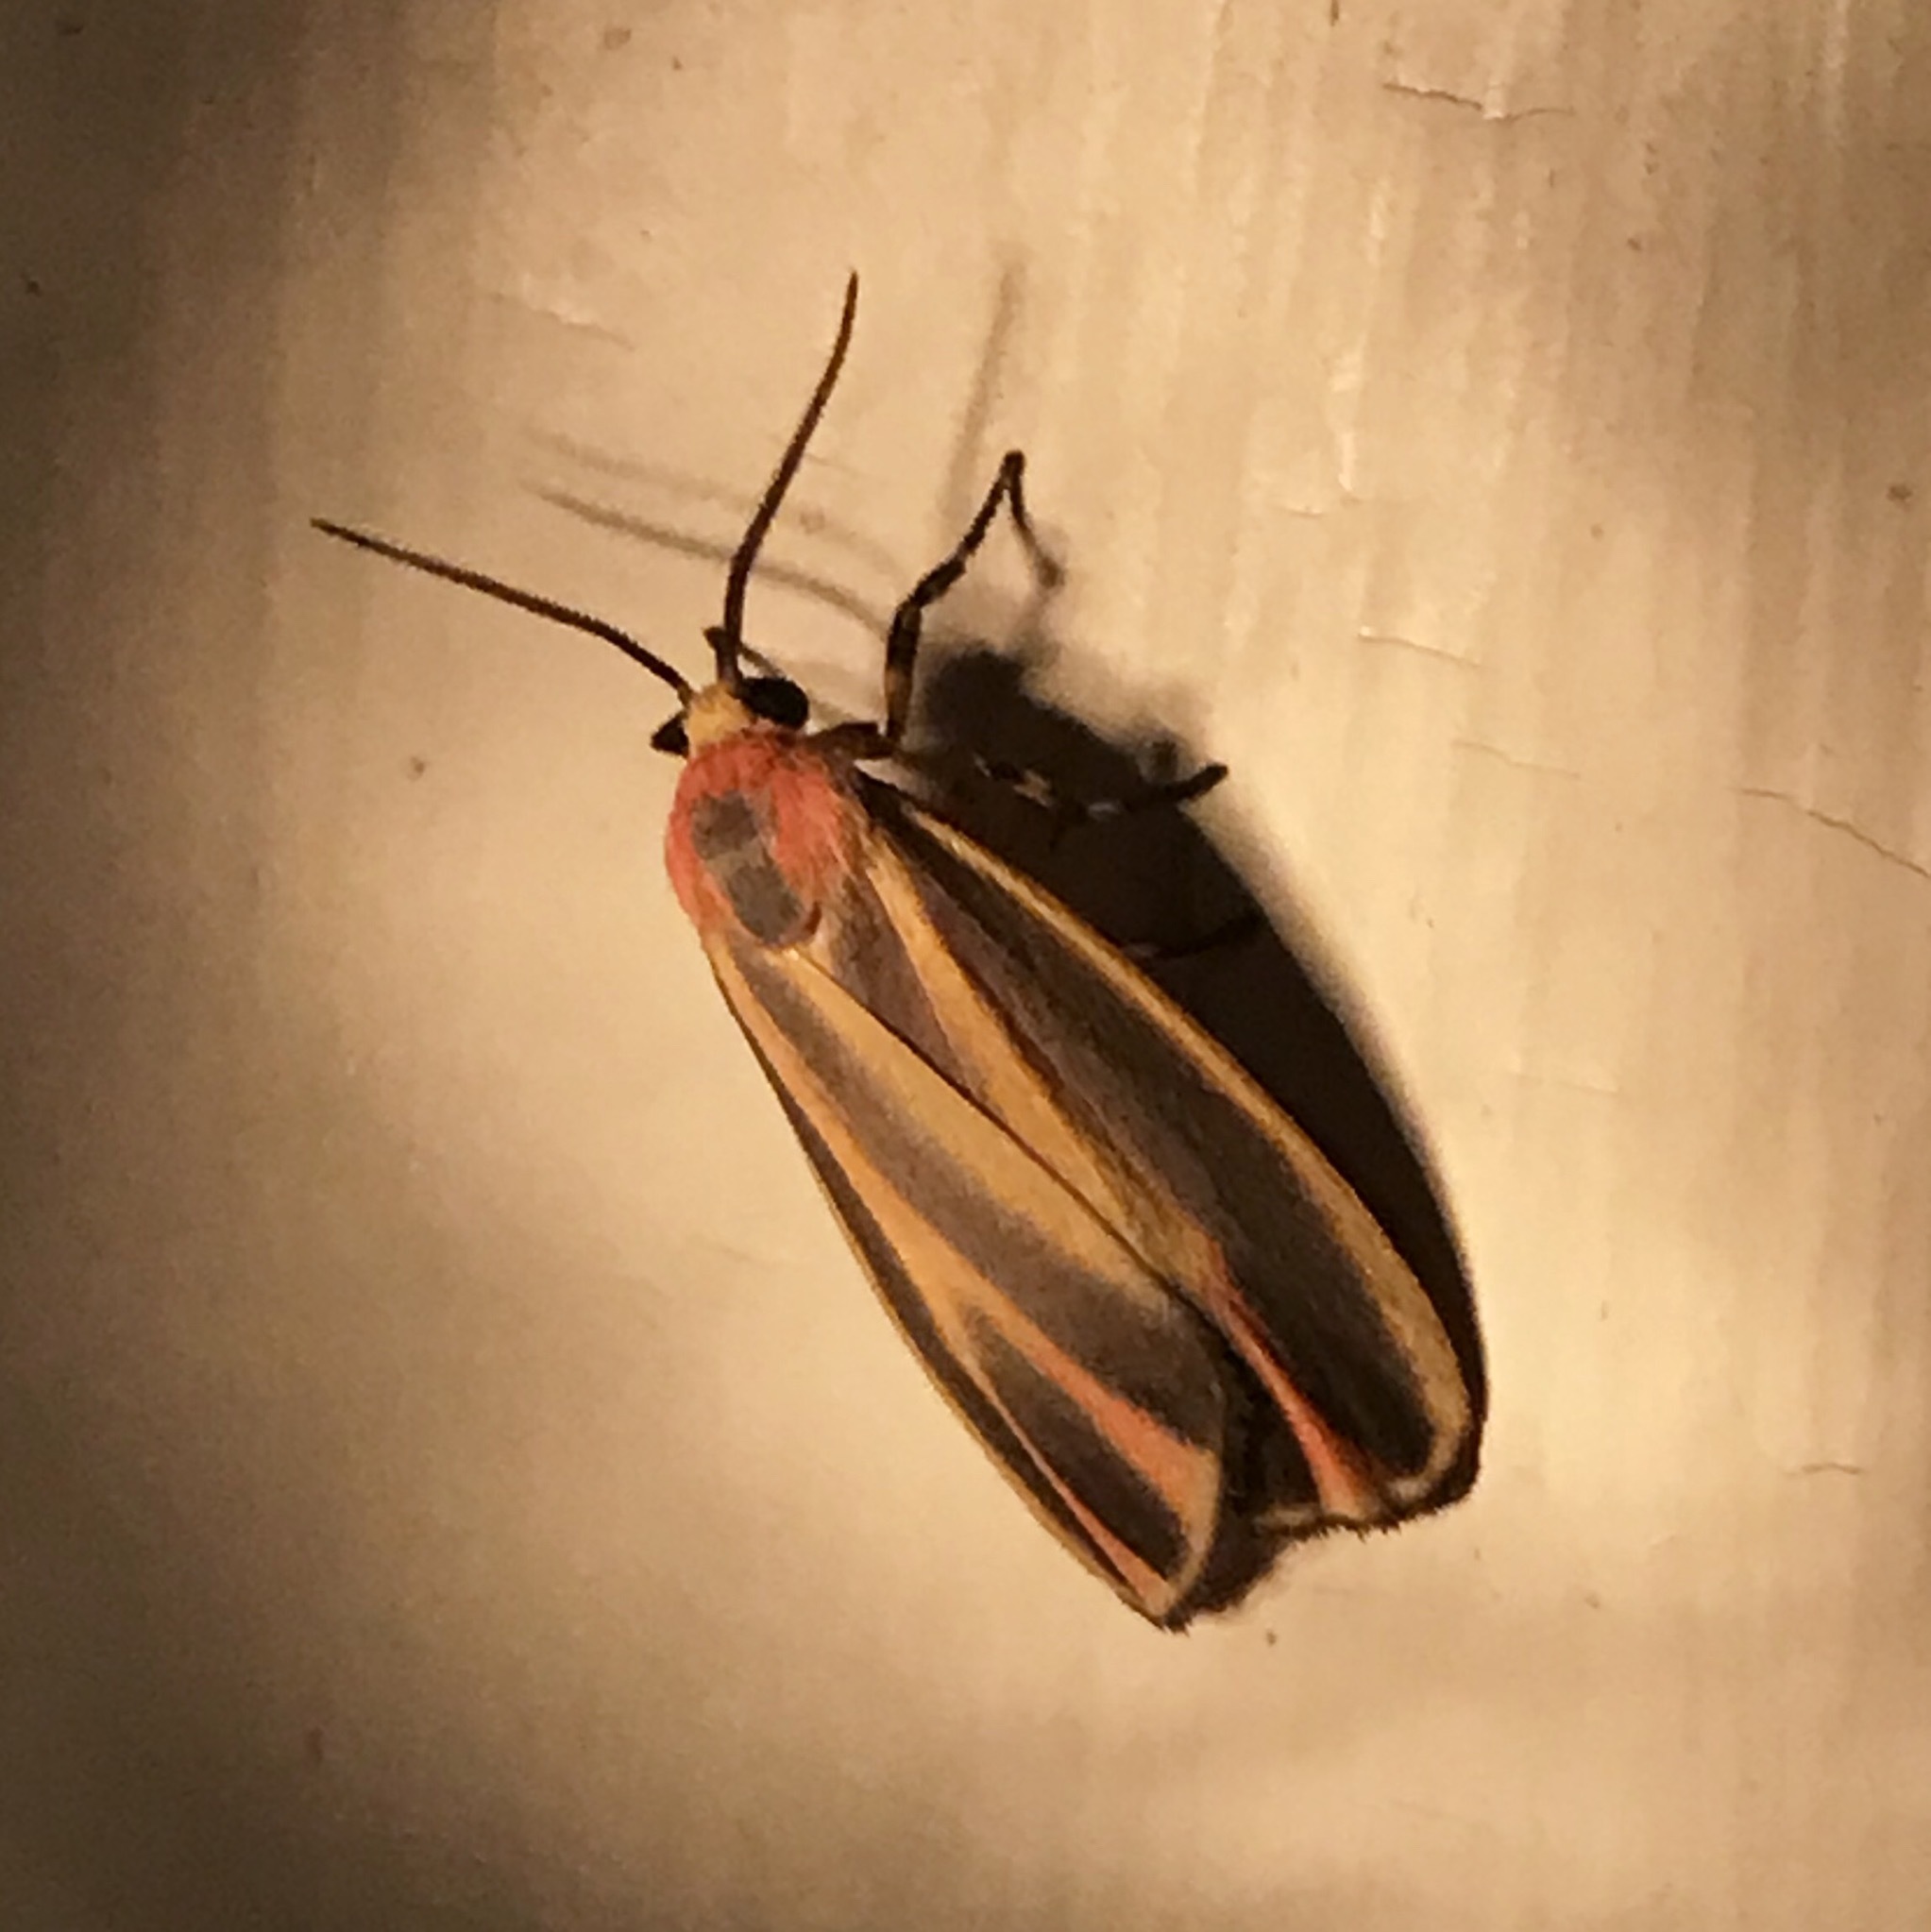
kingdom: Animalia
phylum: Arthropoda
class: Insecta
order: Lepidoptera
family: Erebidae
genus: Hypoprepia
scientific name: Hypoprepia fucosa
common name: Painted lichen moth
